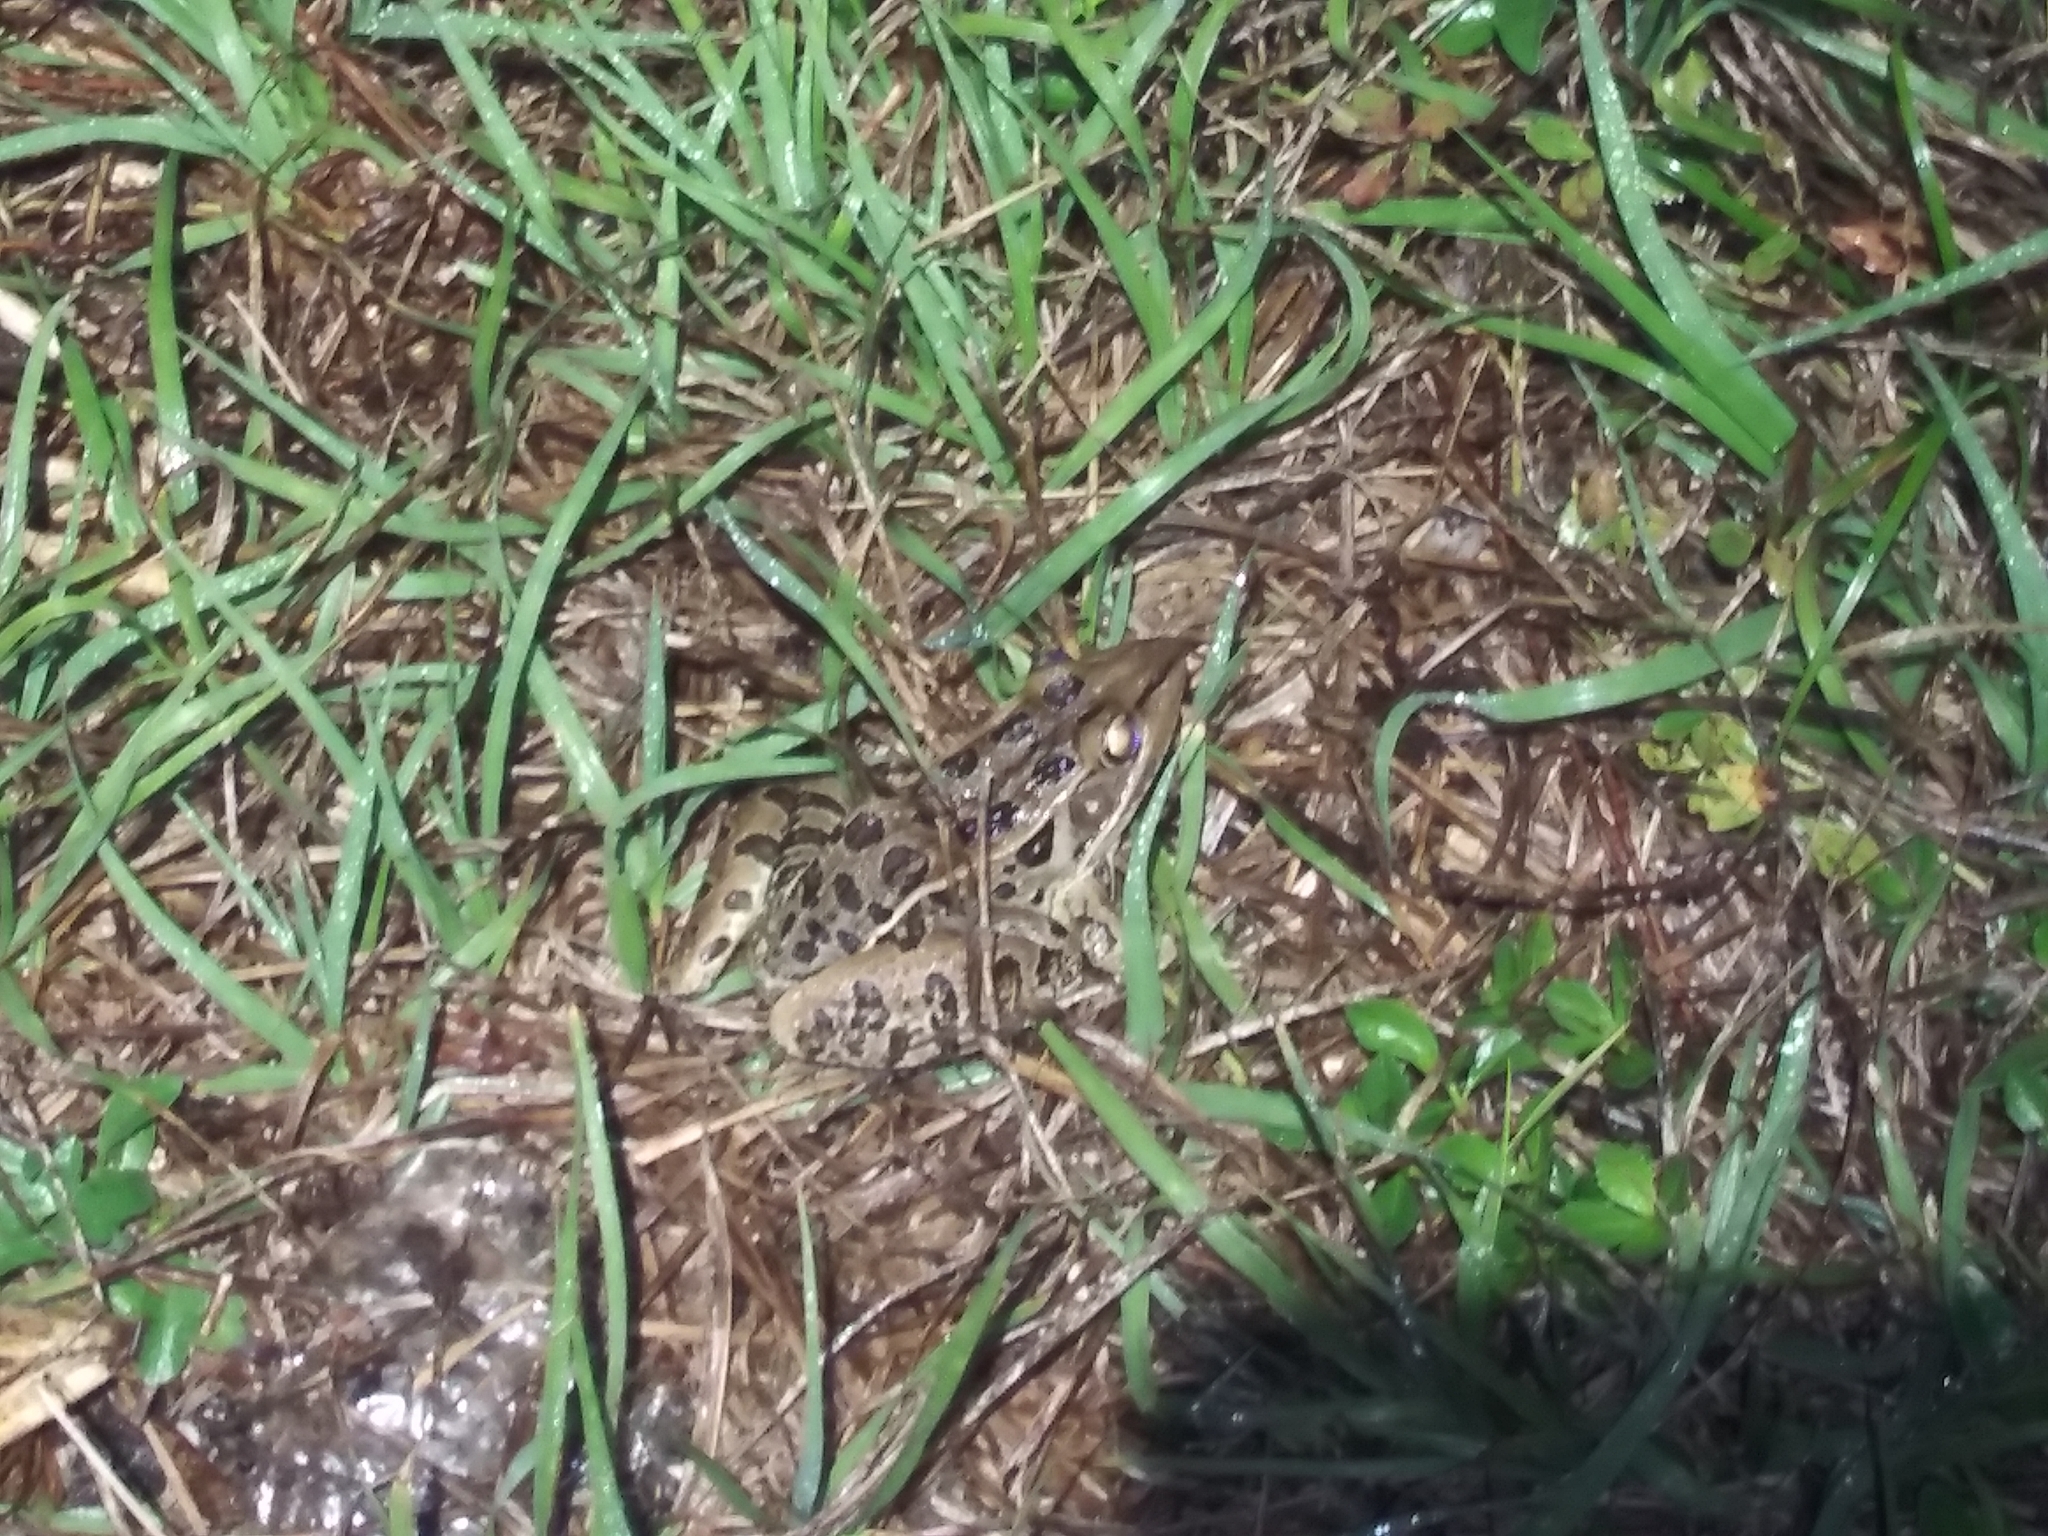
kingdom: Animalia
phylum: Chordata
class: Amphibia
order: Anura
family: Ranidae
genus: Lithobates
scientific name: Lithobates sphenocephalus
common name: Southern leopard frog
